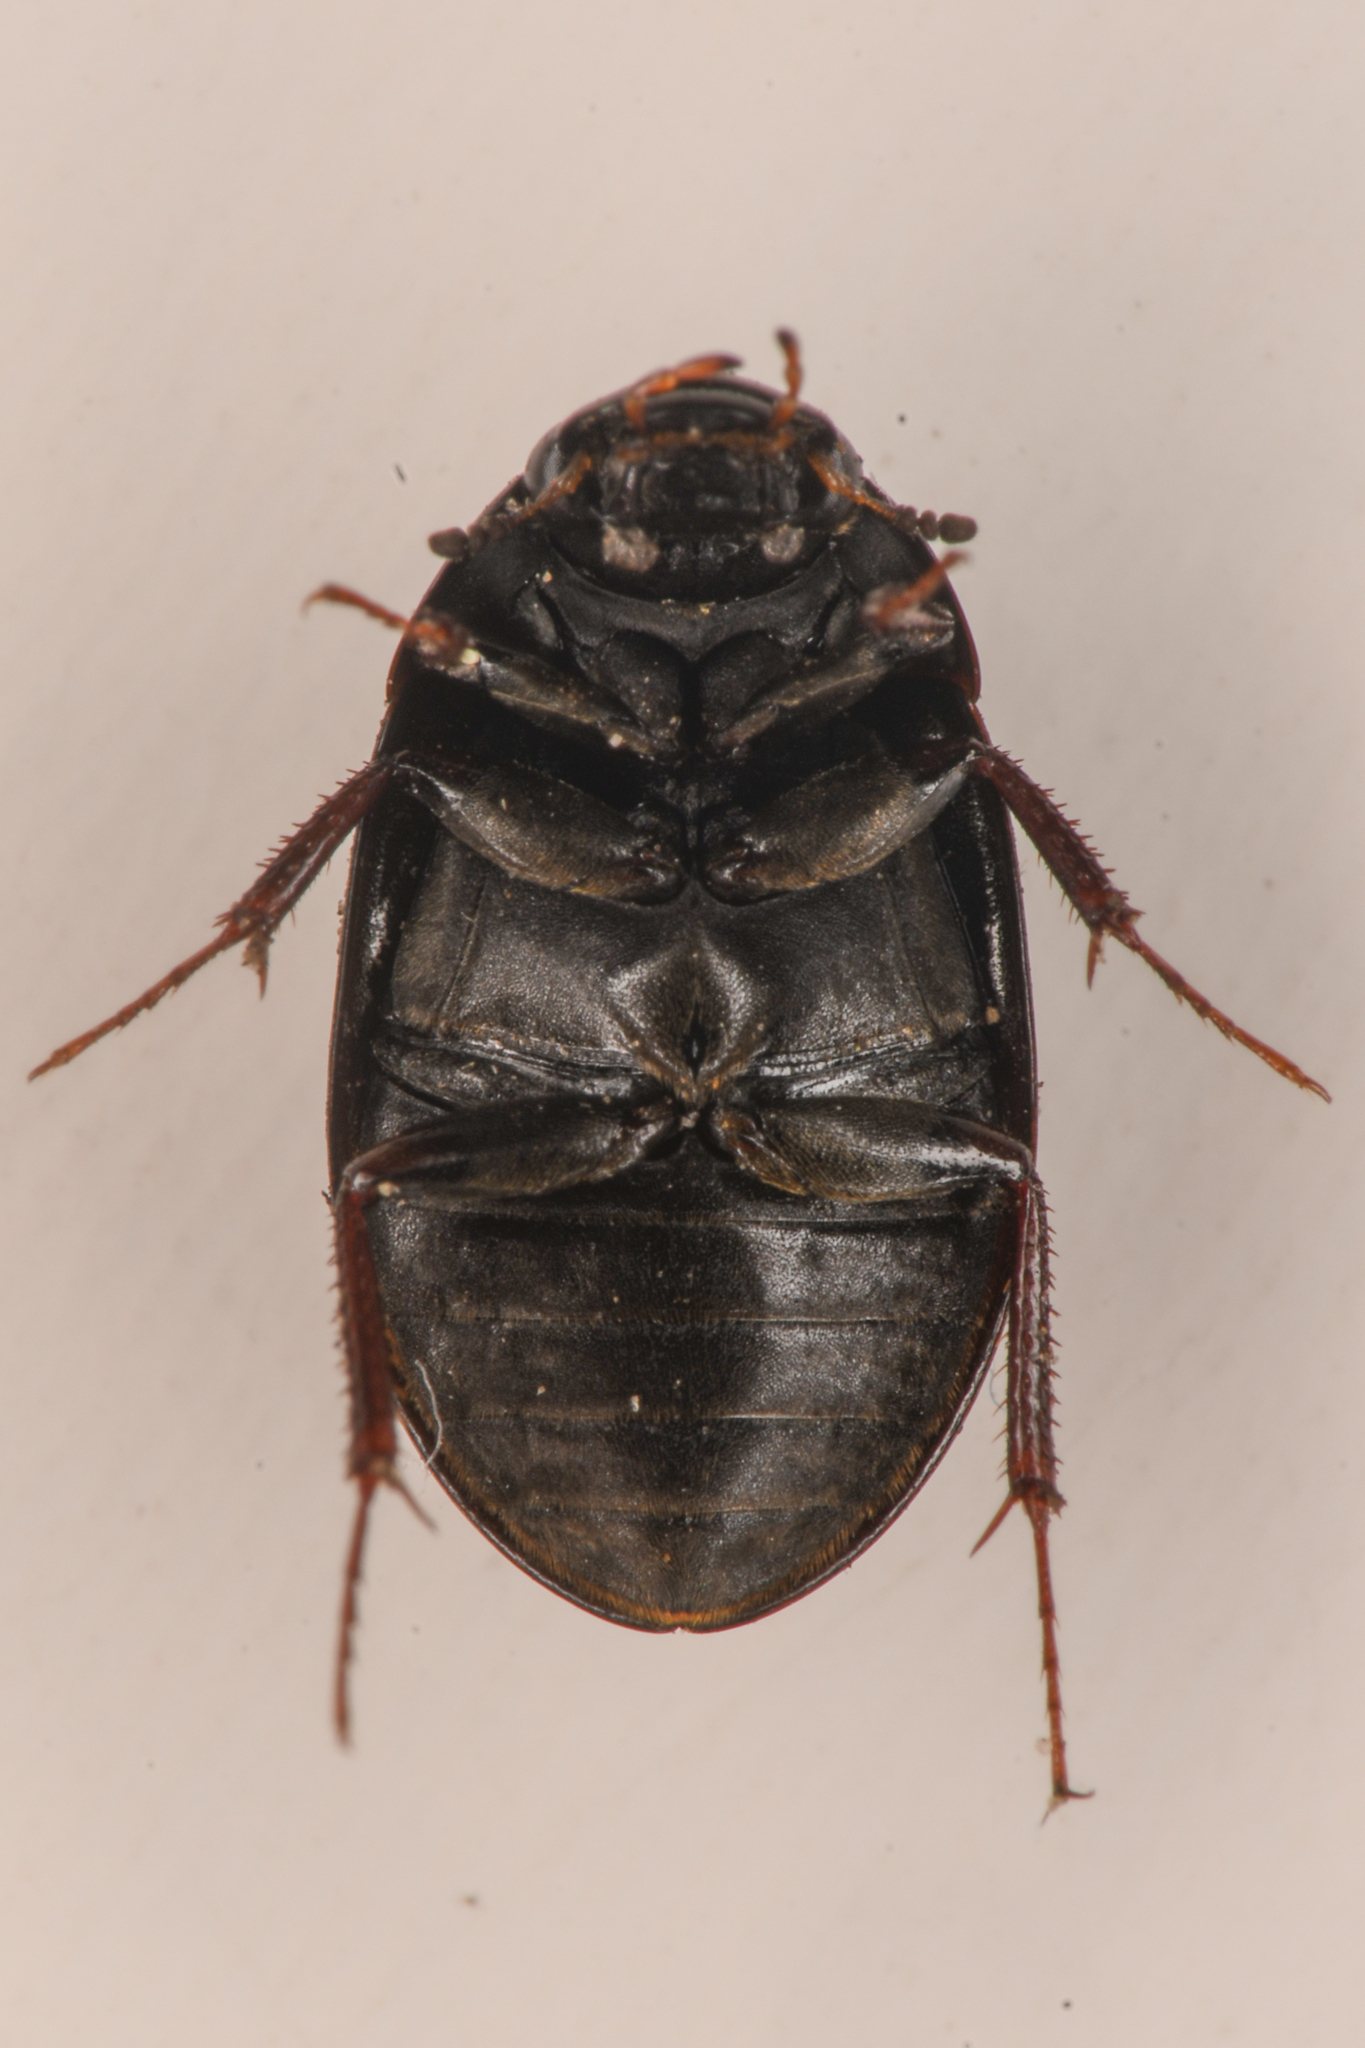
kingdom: Animalia
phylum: Arthropoda
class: Insecta
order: Coleoptera
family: Hydrophilidae
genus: Hydrobius
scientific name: Hydrobius fuscipes
